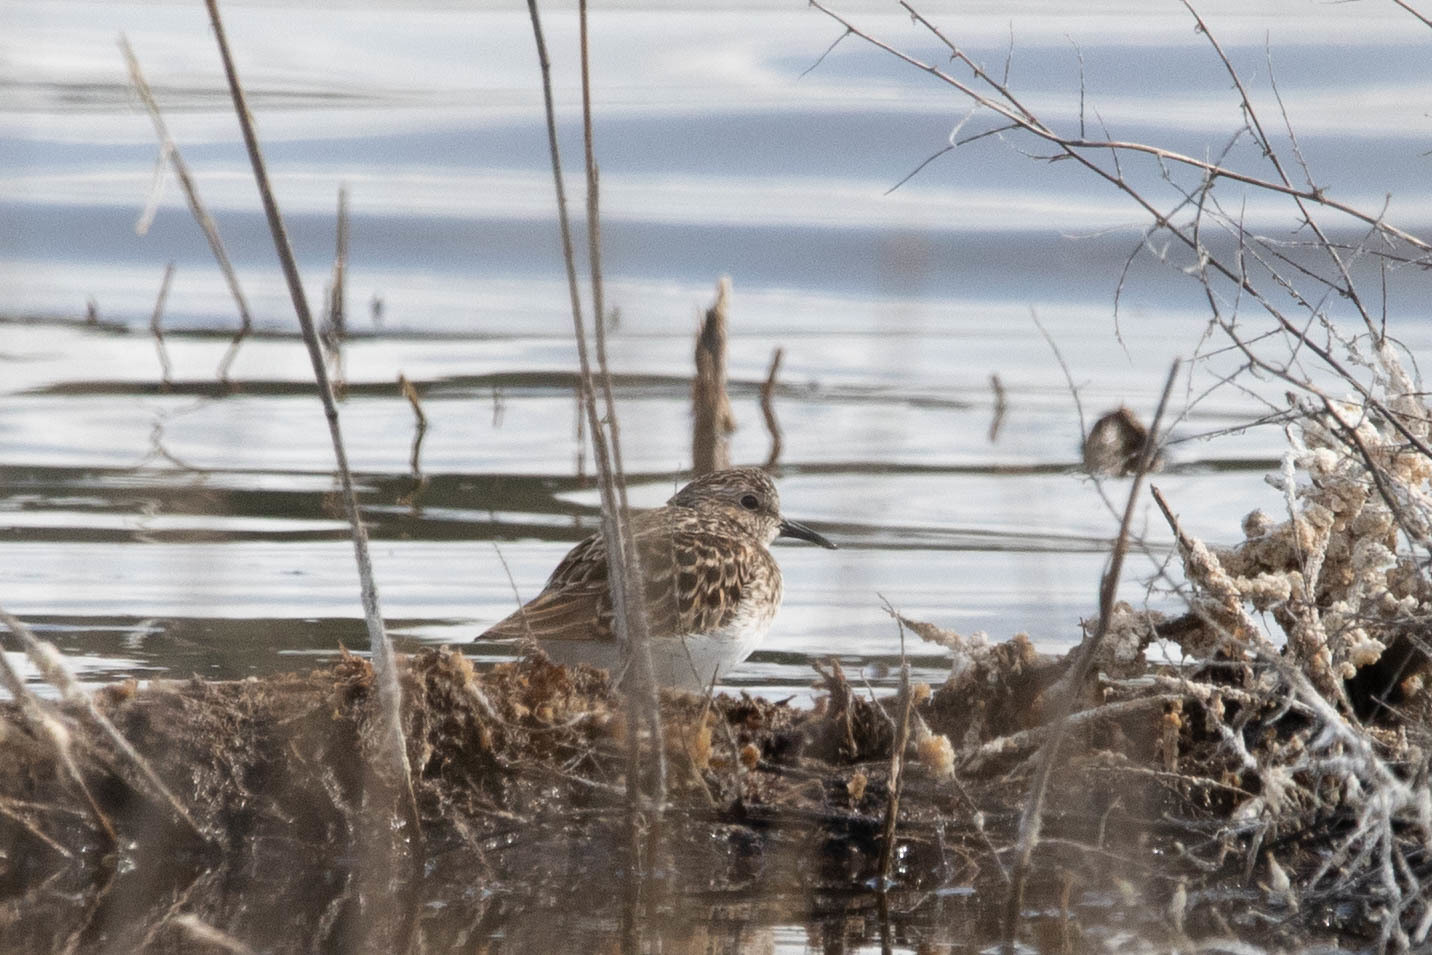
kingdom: Animalia
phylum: Chordata
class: Aves
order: Charadriiformes
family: Scolopacidae
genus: Calidris
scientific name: Calidris minutilla
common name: Least sandpiper
